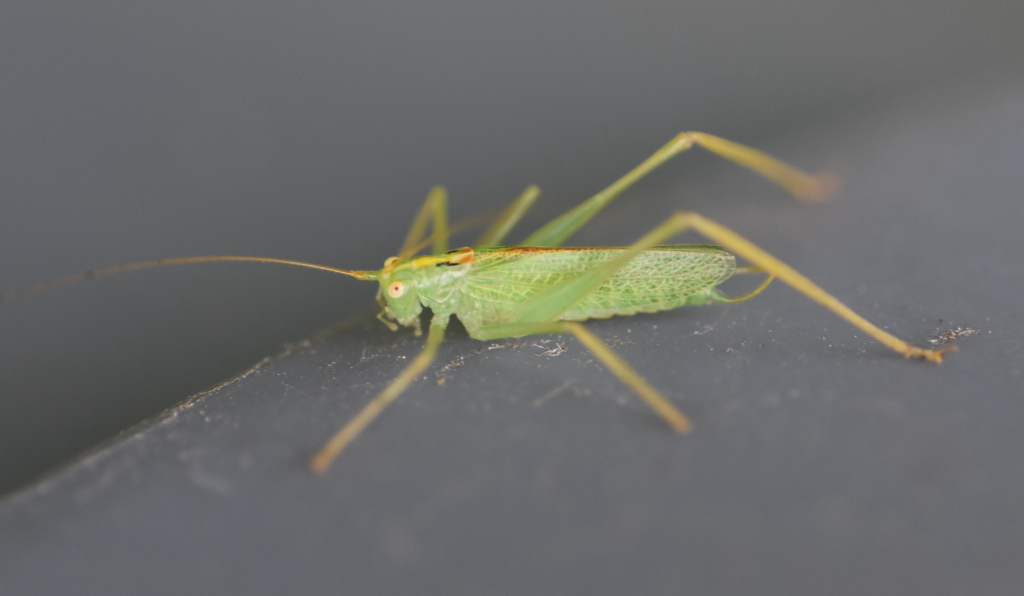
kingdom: Animalia
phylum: Arthropoda
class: Insecta
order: Orthoptera
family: Tettigoniidae
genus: Meconema
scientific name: Meconema thalassinum
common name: Oak bush-cricket
